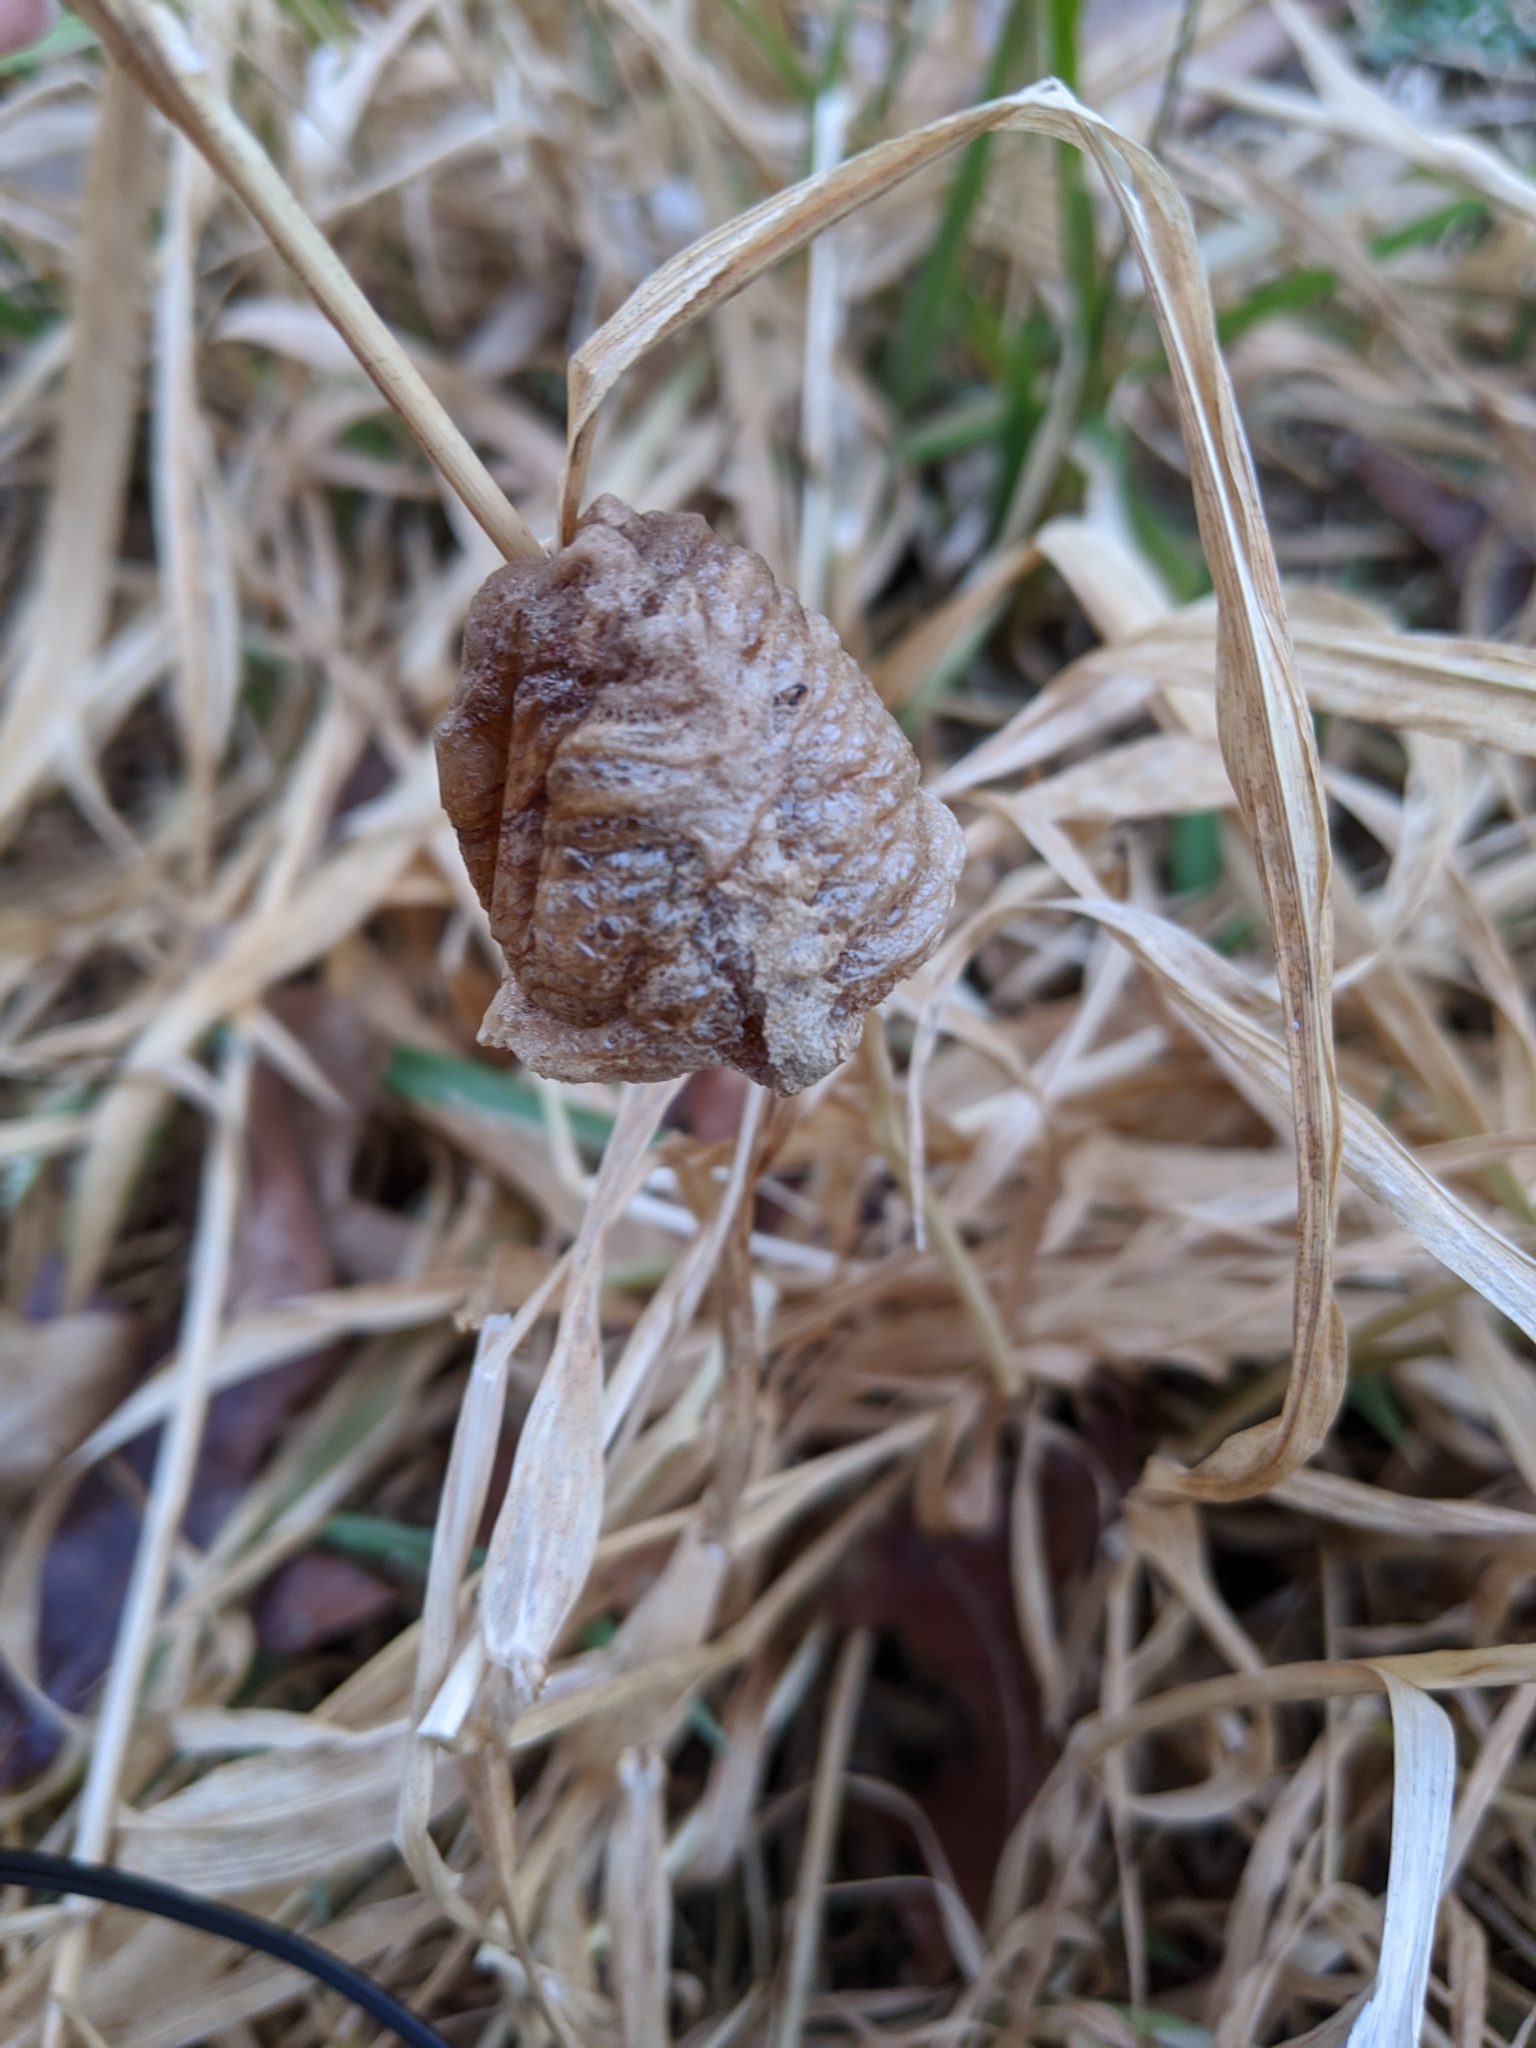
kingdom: Animalia
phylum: Arthropoda
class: Insecta
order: Mantodea
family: Mantidae
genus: Tenodera
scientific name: Tenodera sinensis
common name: Chinese mantis
